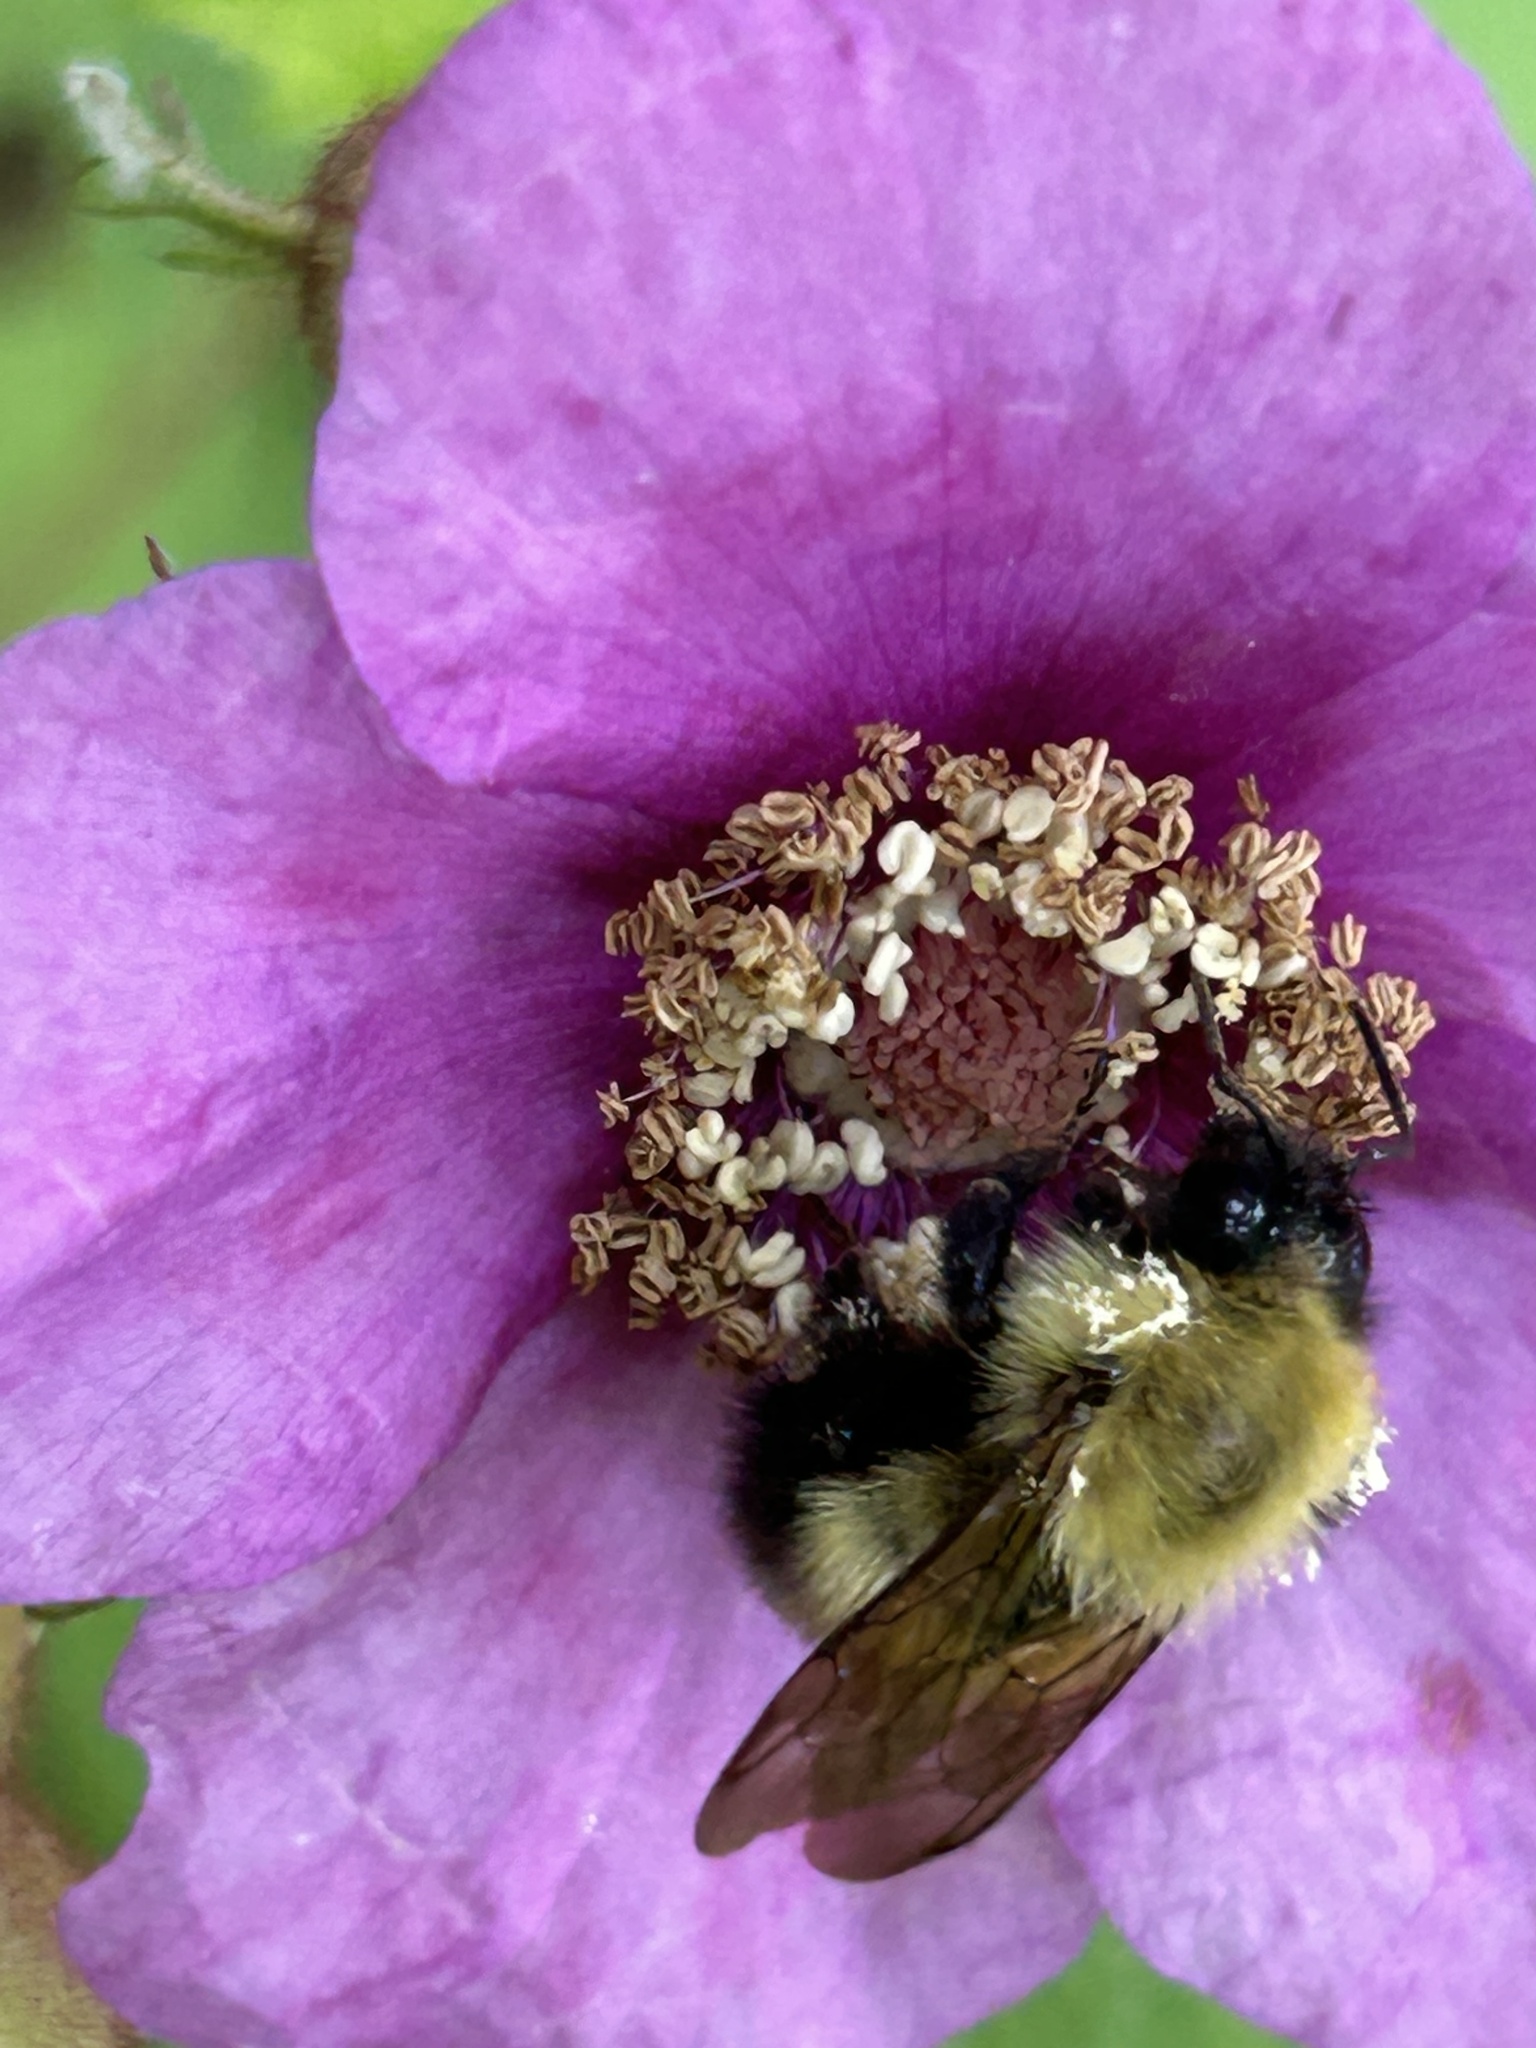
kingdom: Animalia
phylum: Arthropoda
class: Insecta
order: Hymenoptera
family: Apidae
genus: Bombus
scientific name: Bombus perplexus
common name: Confusing bumble bee
